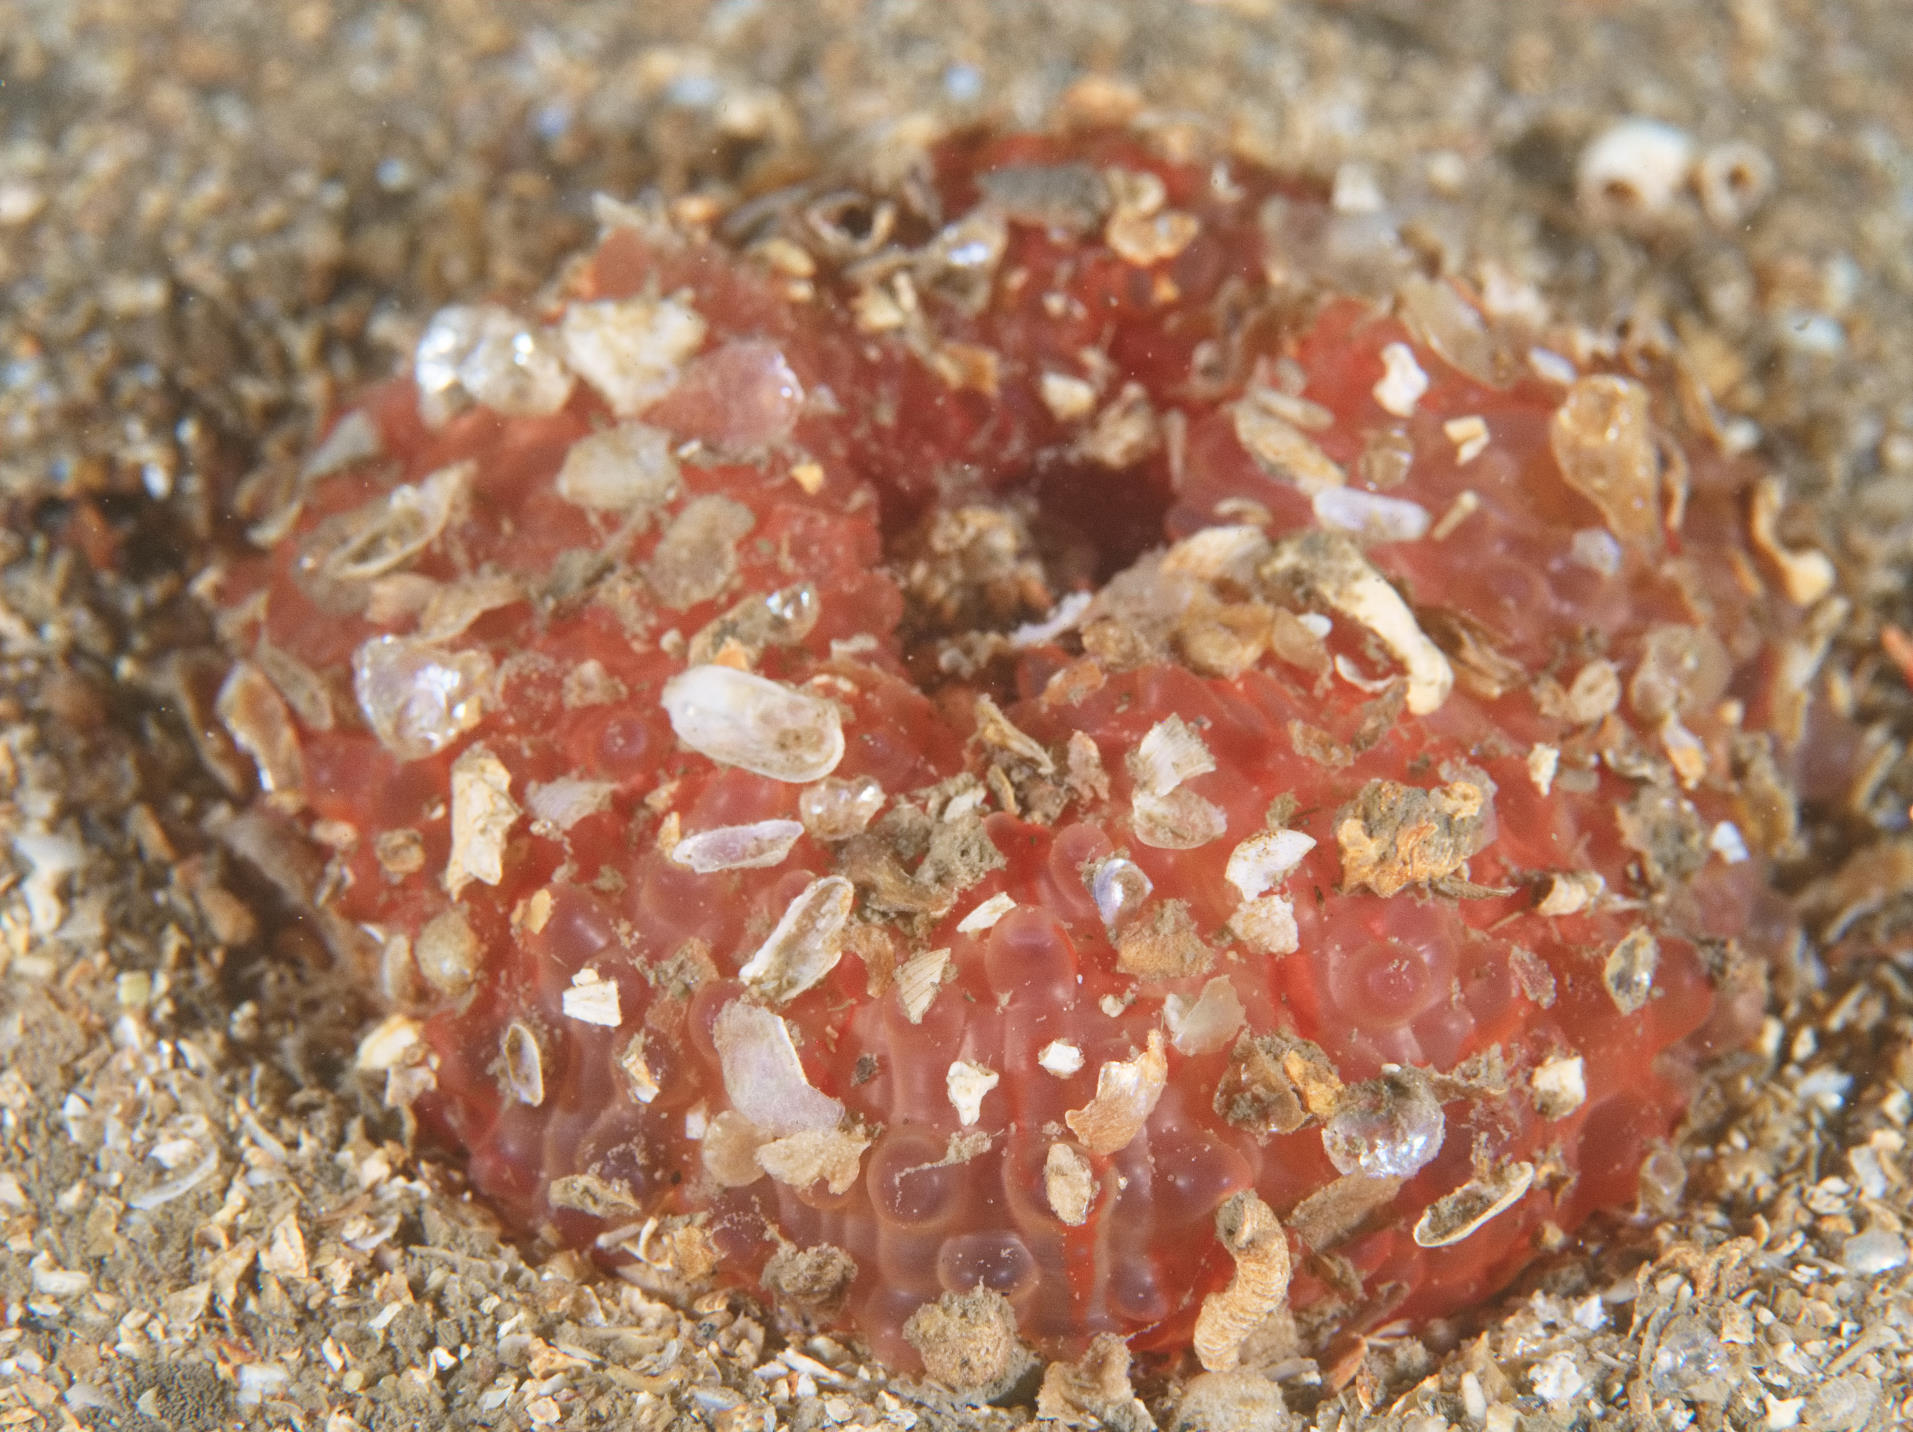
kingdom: Animalia
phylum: Cnidaria
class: Anthozoa
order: Actiniaria
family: Actiniidae
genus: Urticina
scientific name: Urticina felina
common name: Dahlia anemone
